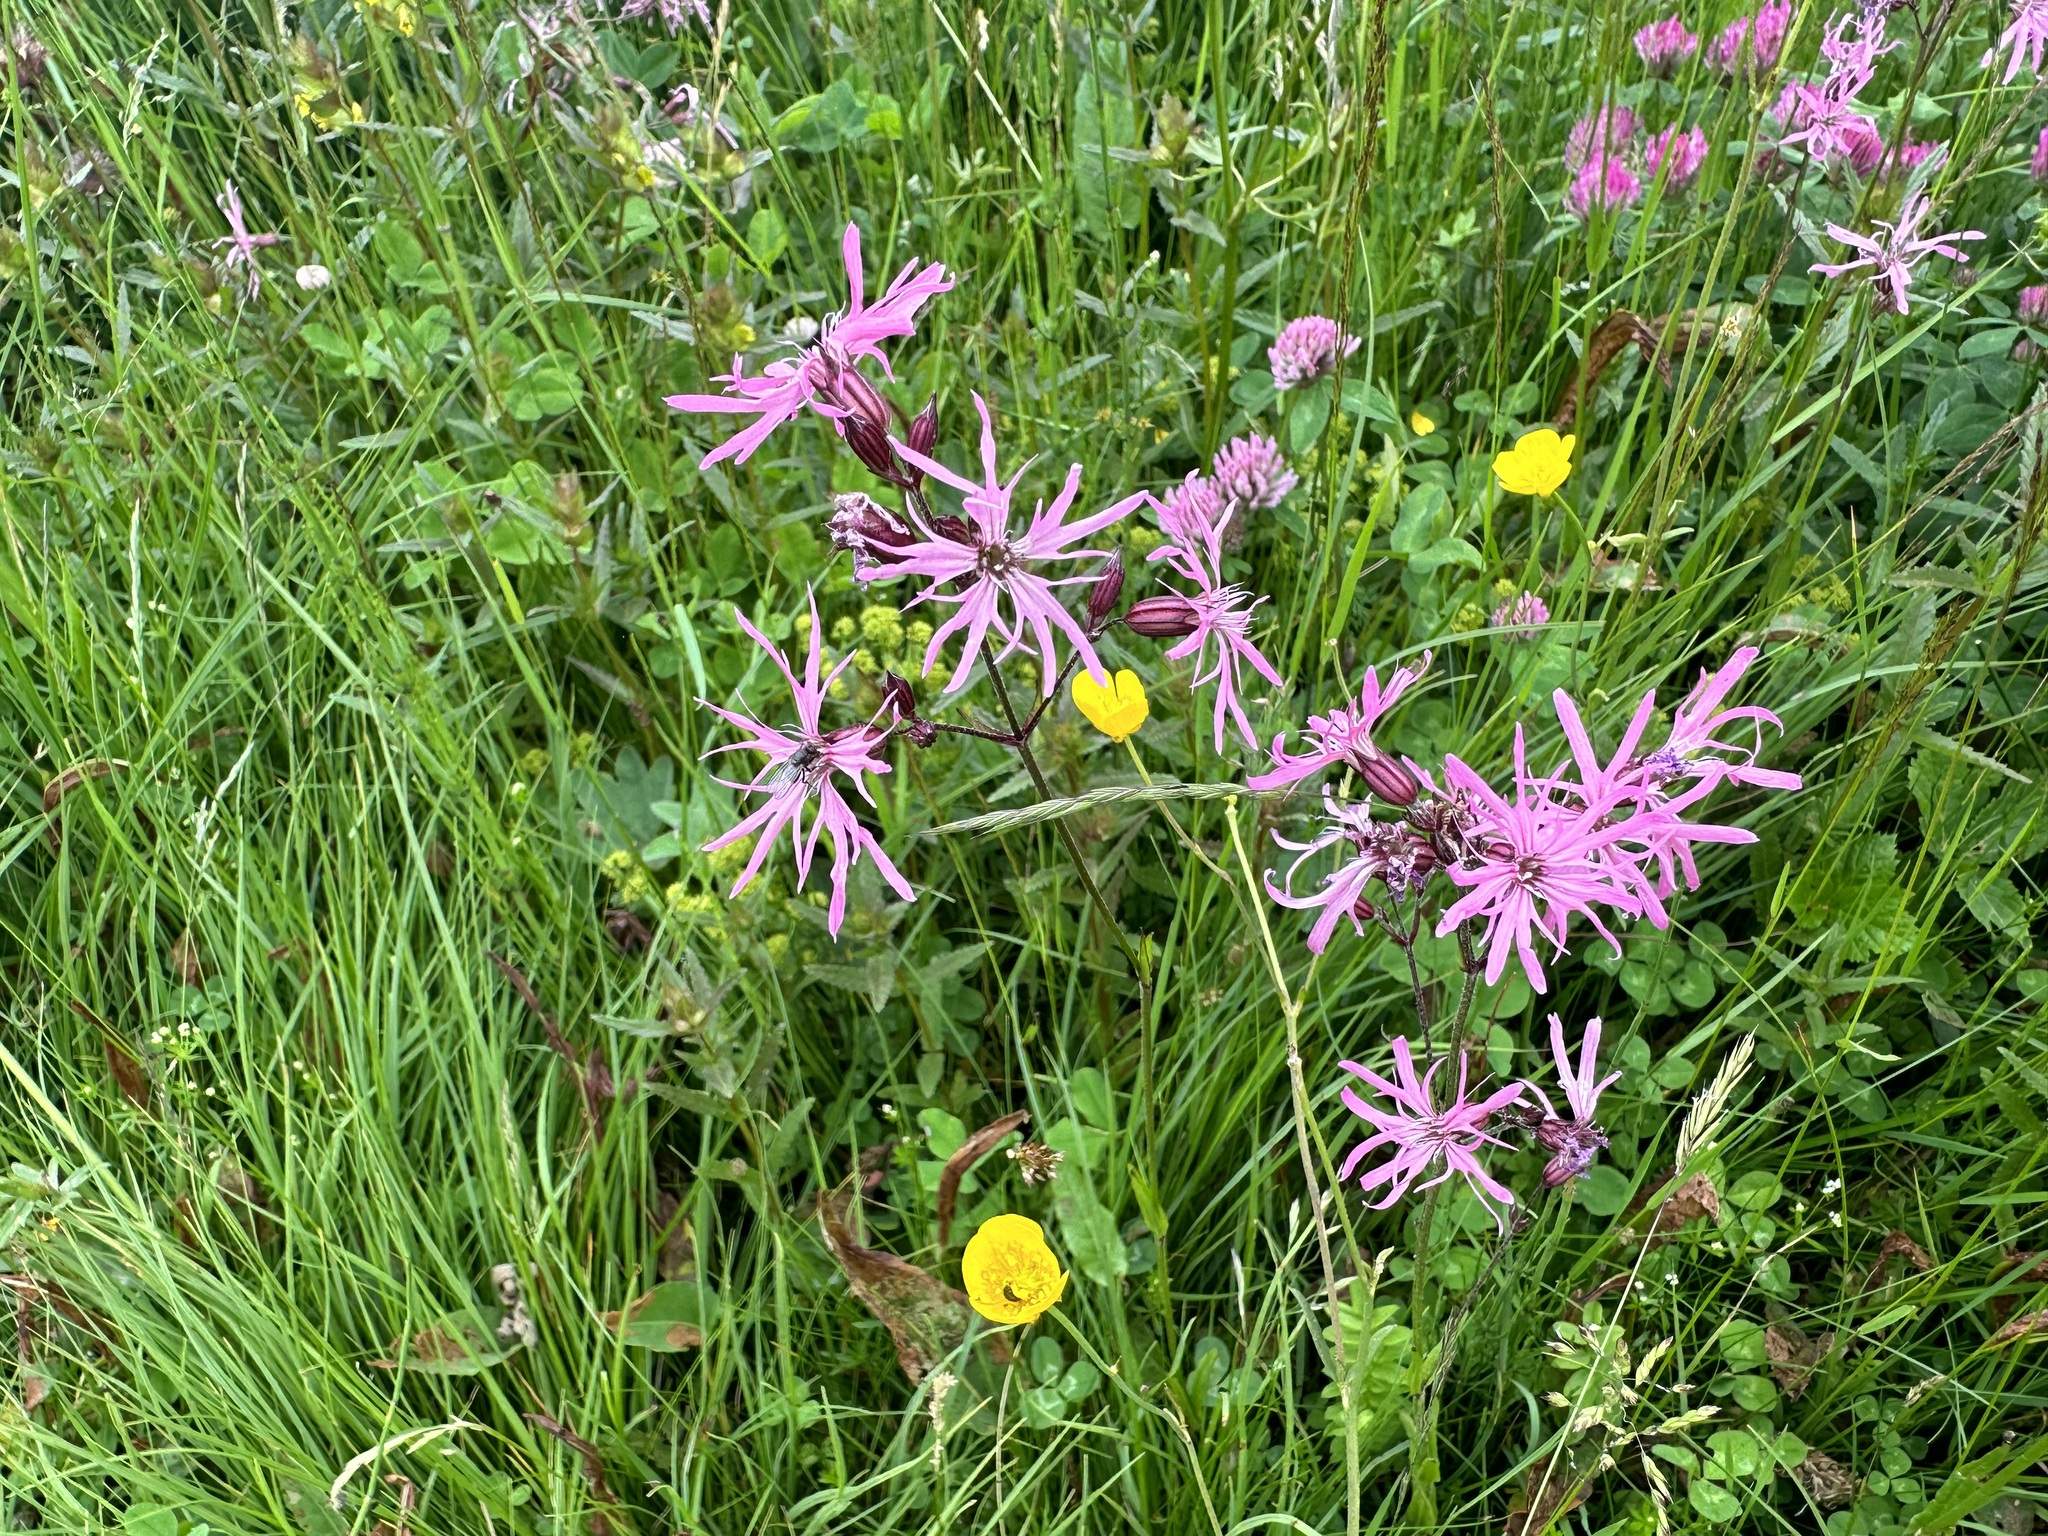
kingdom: Plantae
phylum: Tracheophyta
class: Magnoliopsida
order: Caryophyllales
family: Caryophyllaceae
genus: Silene
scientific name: Silene flos-cuculi
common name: Ragged-robin
